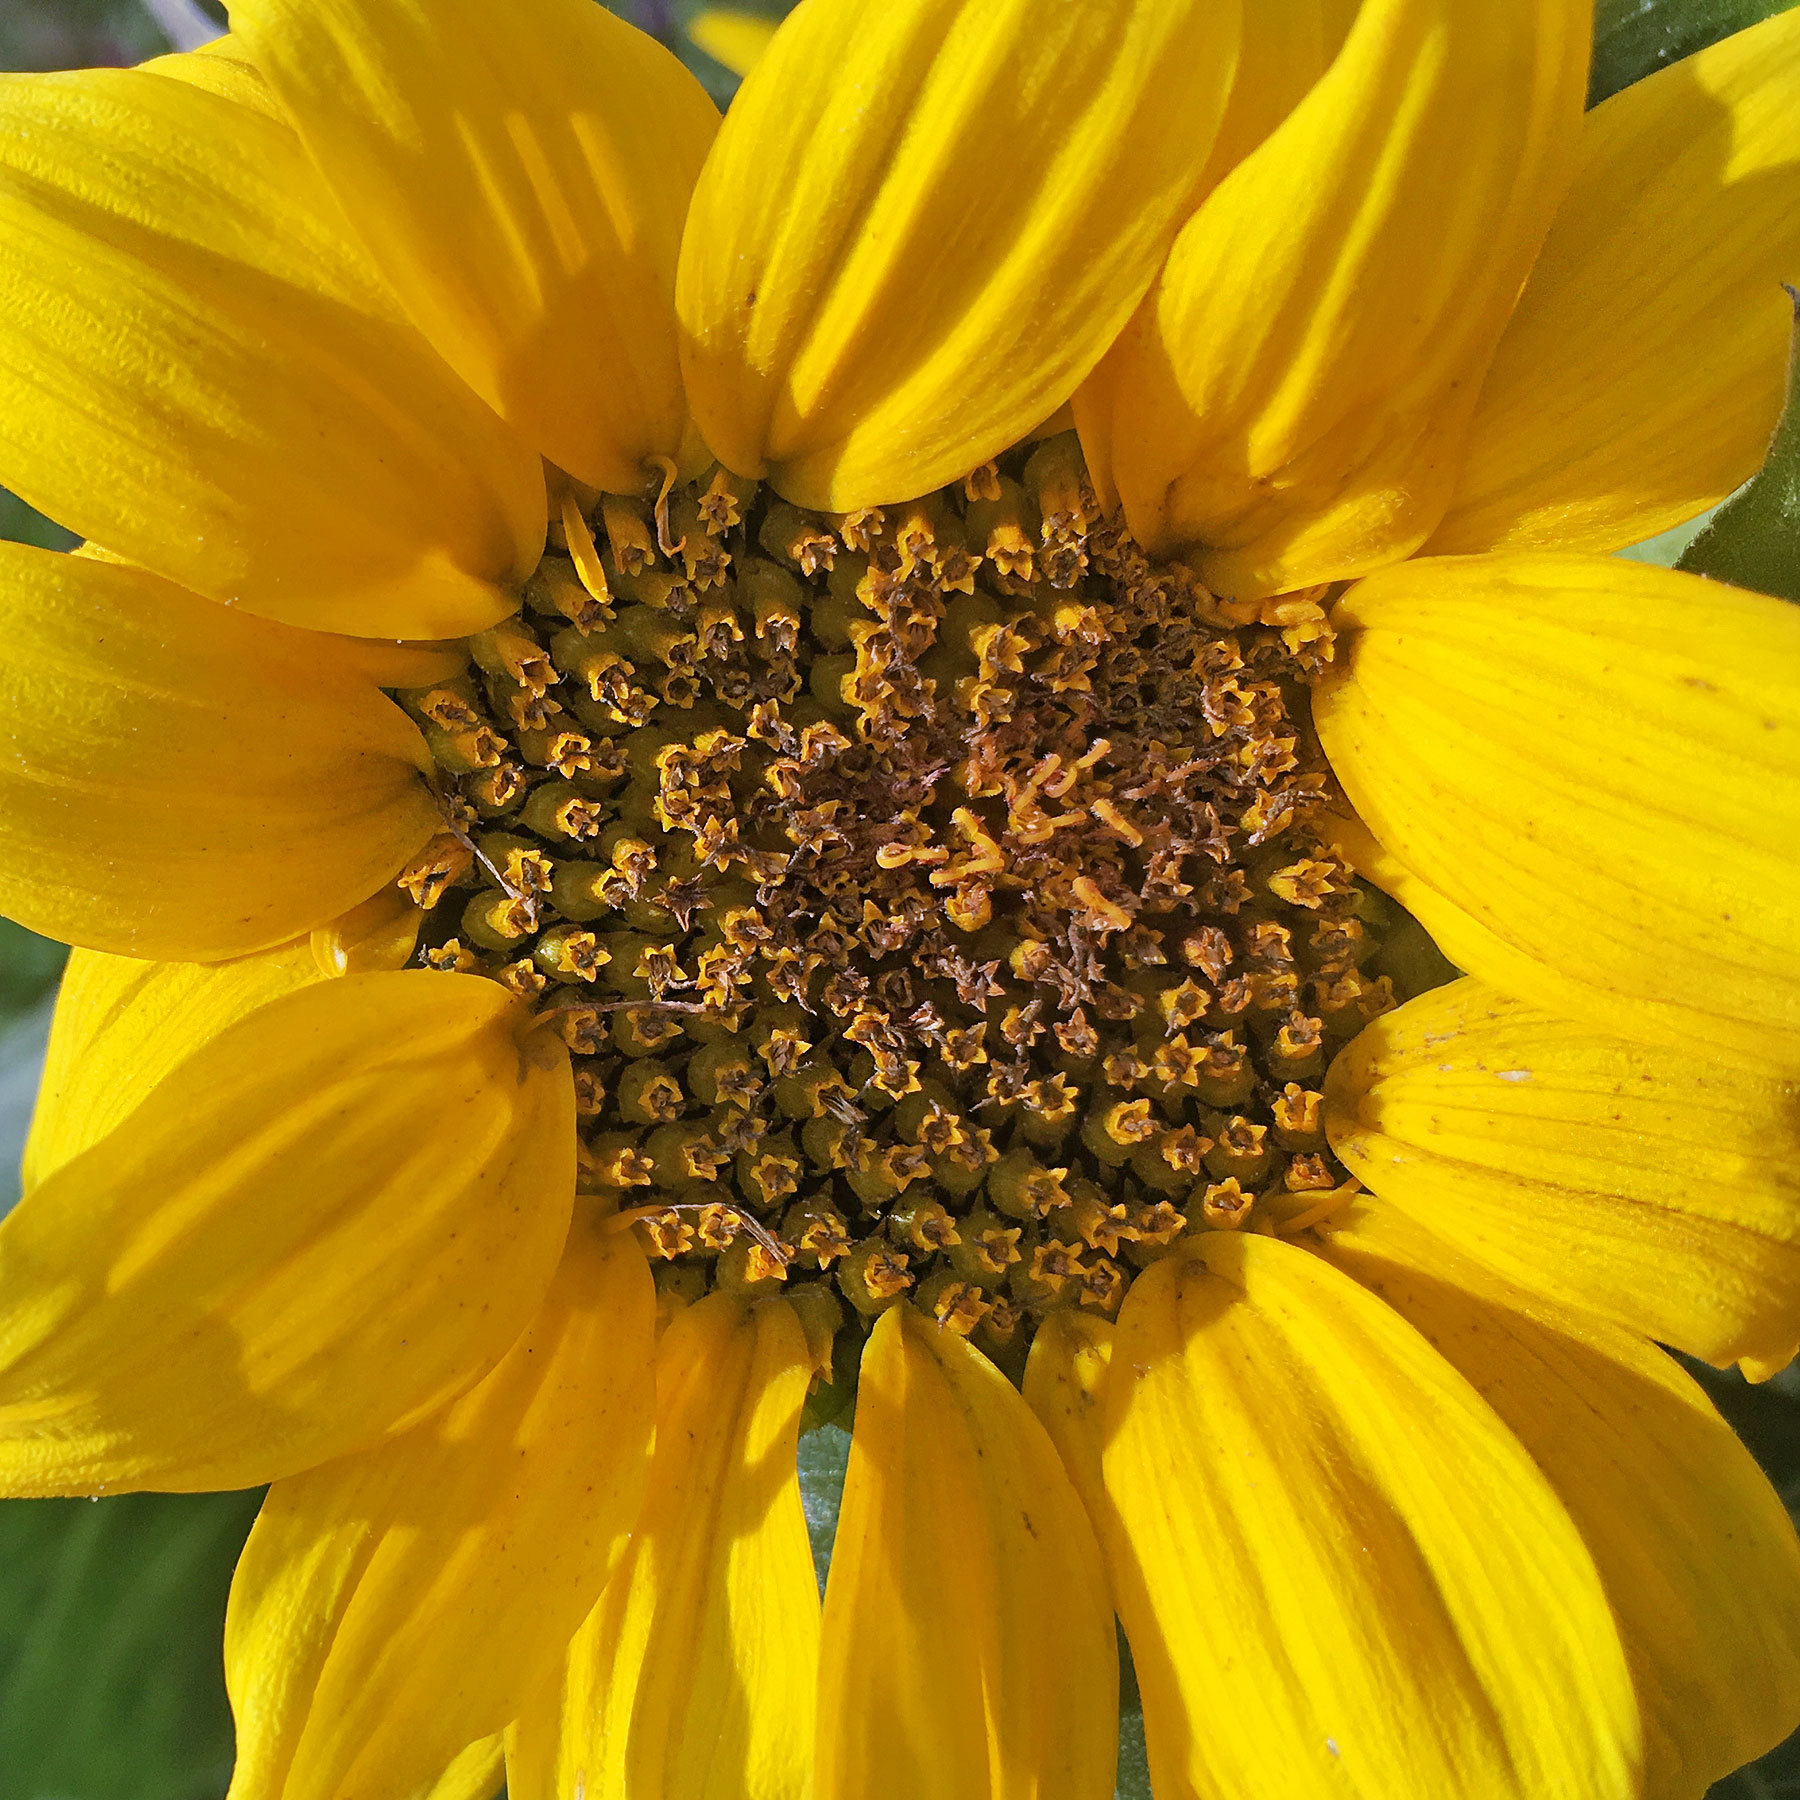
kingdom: Plantae
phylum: Tracheophyta
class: Magnoliopsida
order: Asterales
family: Asteraceae
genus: Helianthus
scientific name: Helianthus annuus
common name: Sunflower
